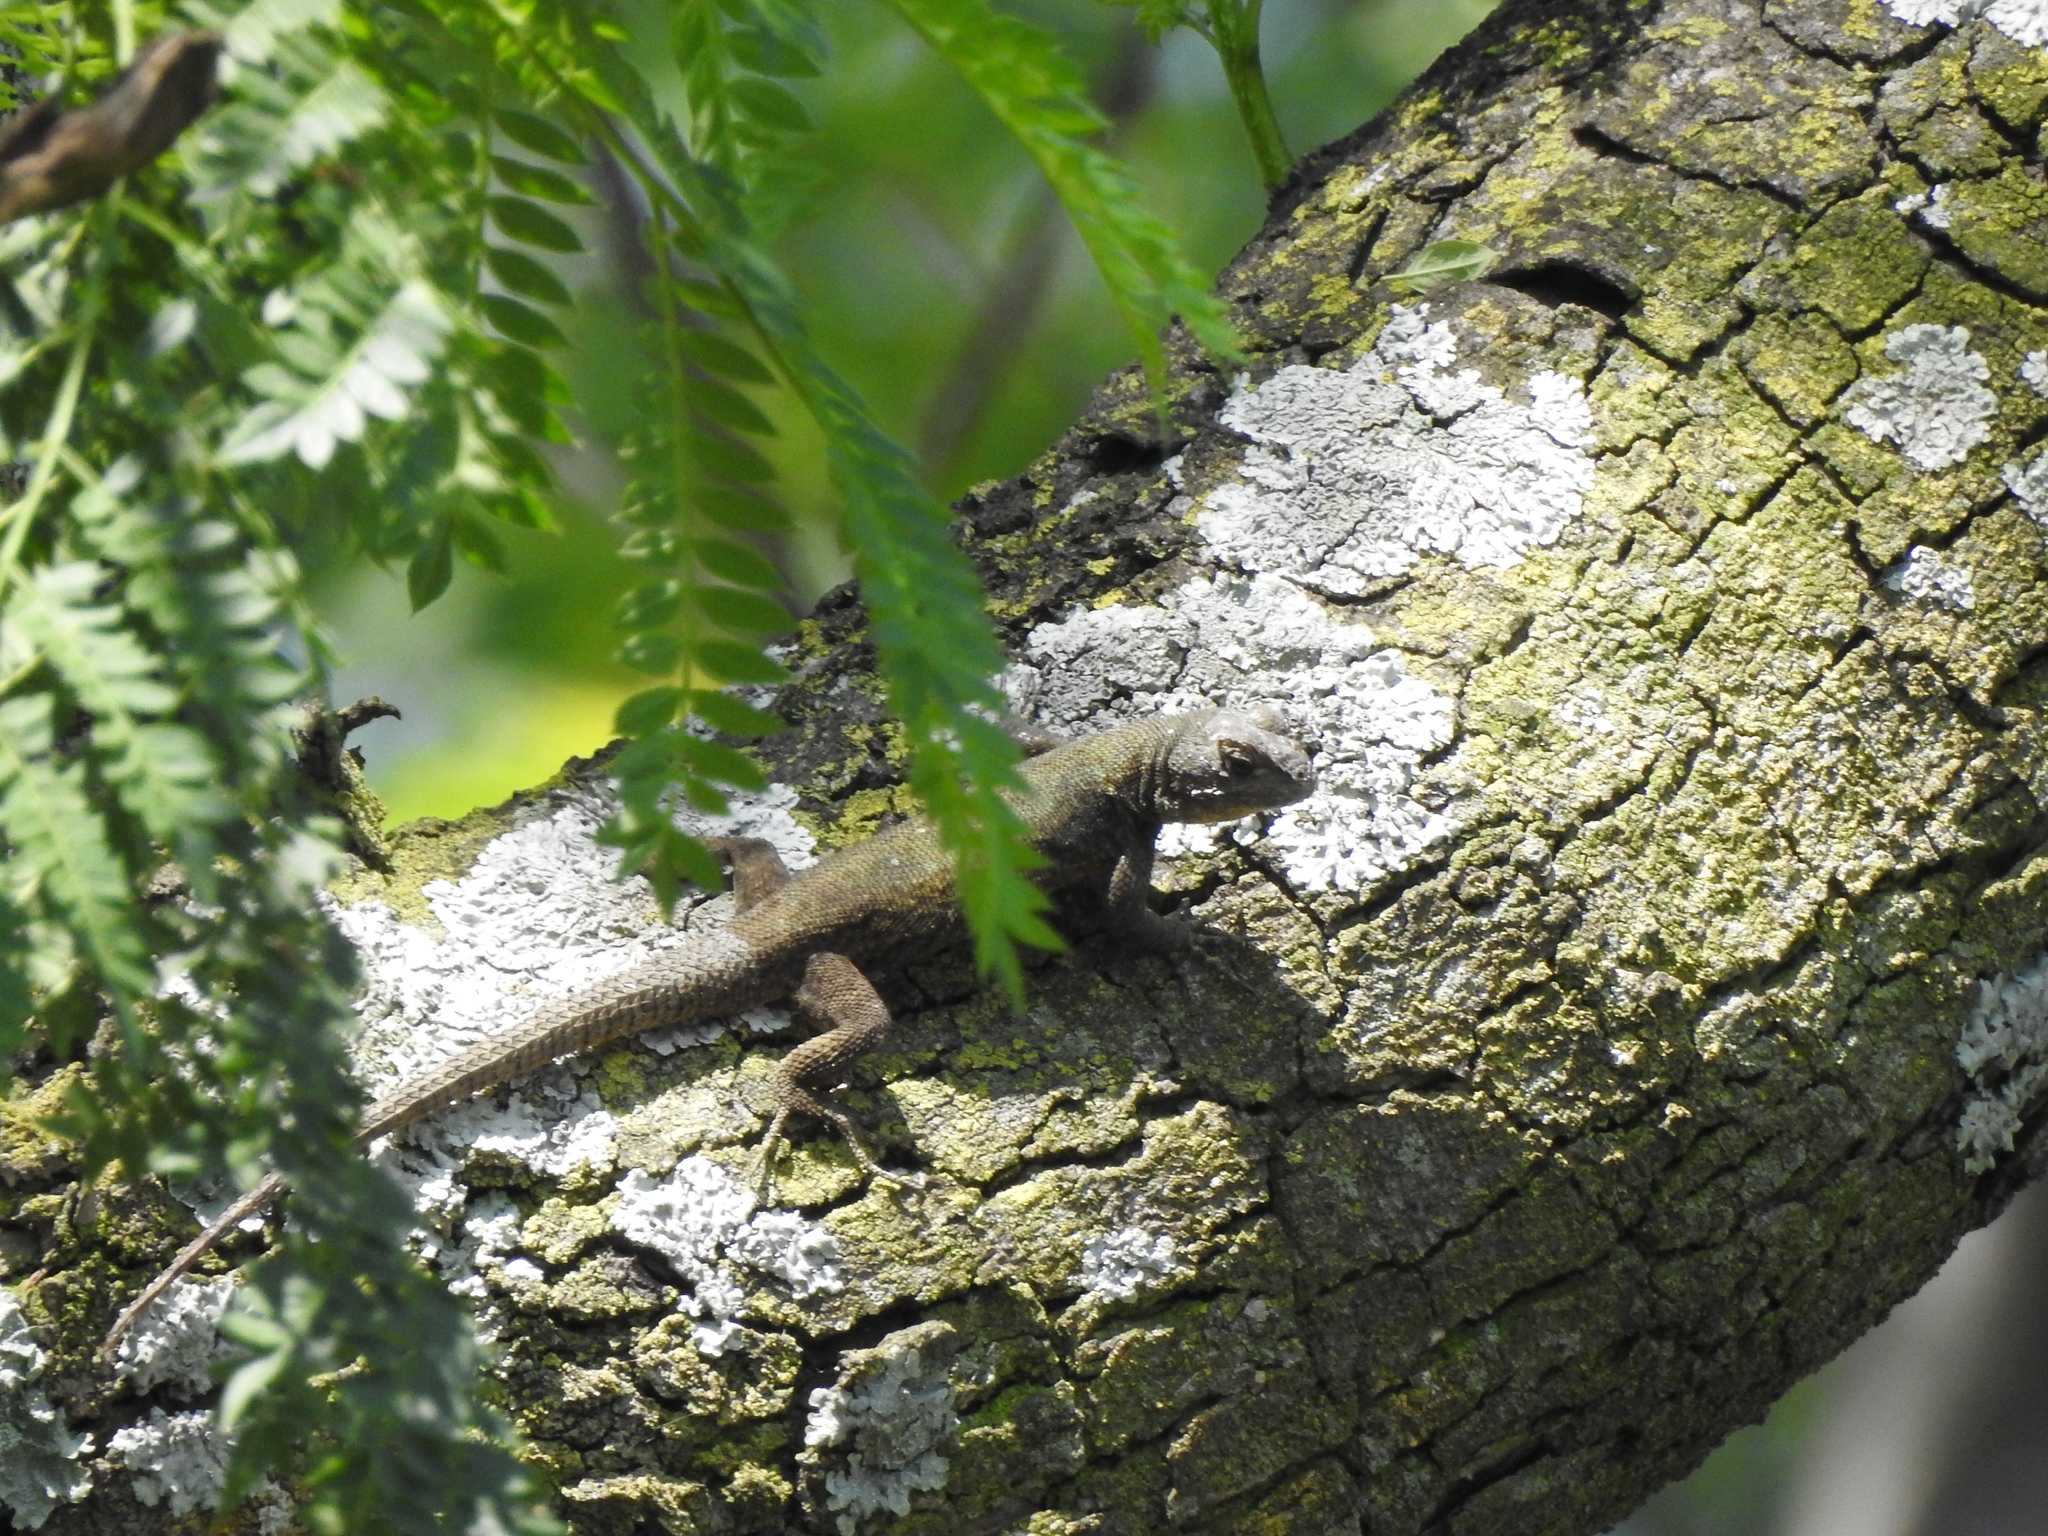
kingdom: Animalia
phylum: Chordata
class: Squamata
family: Phrynosomatidae
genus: Sceloporus
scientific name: Sceloporus grammicus
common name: Mesquite lizard
